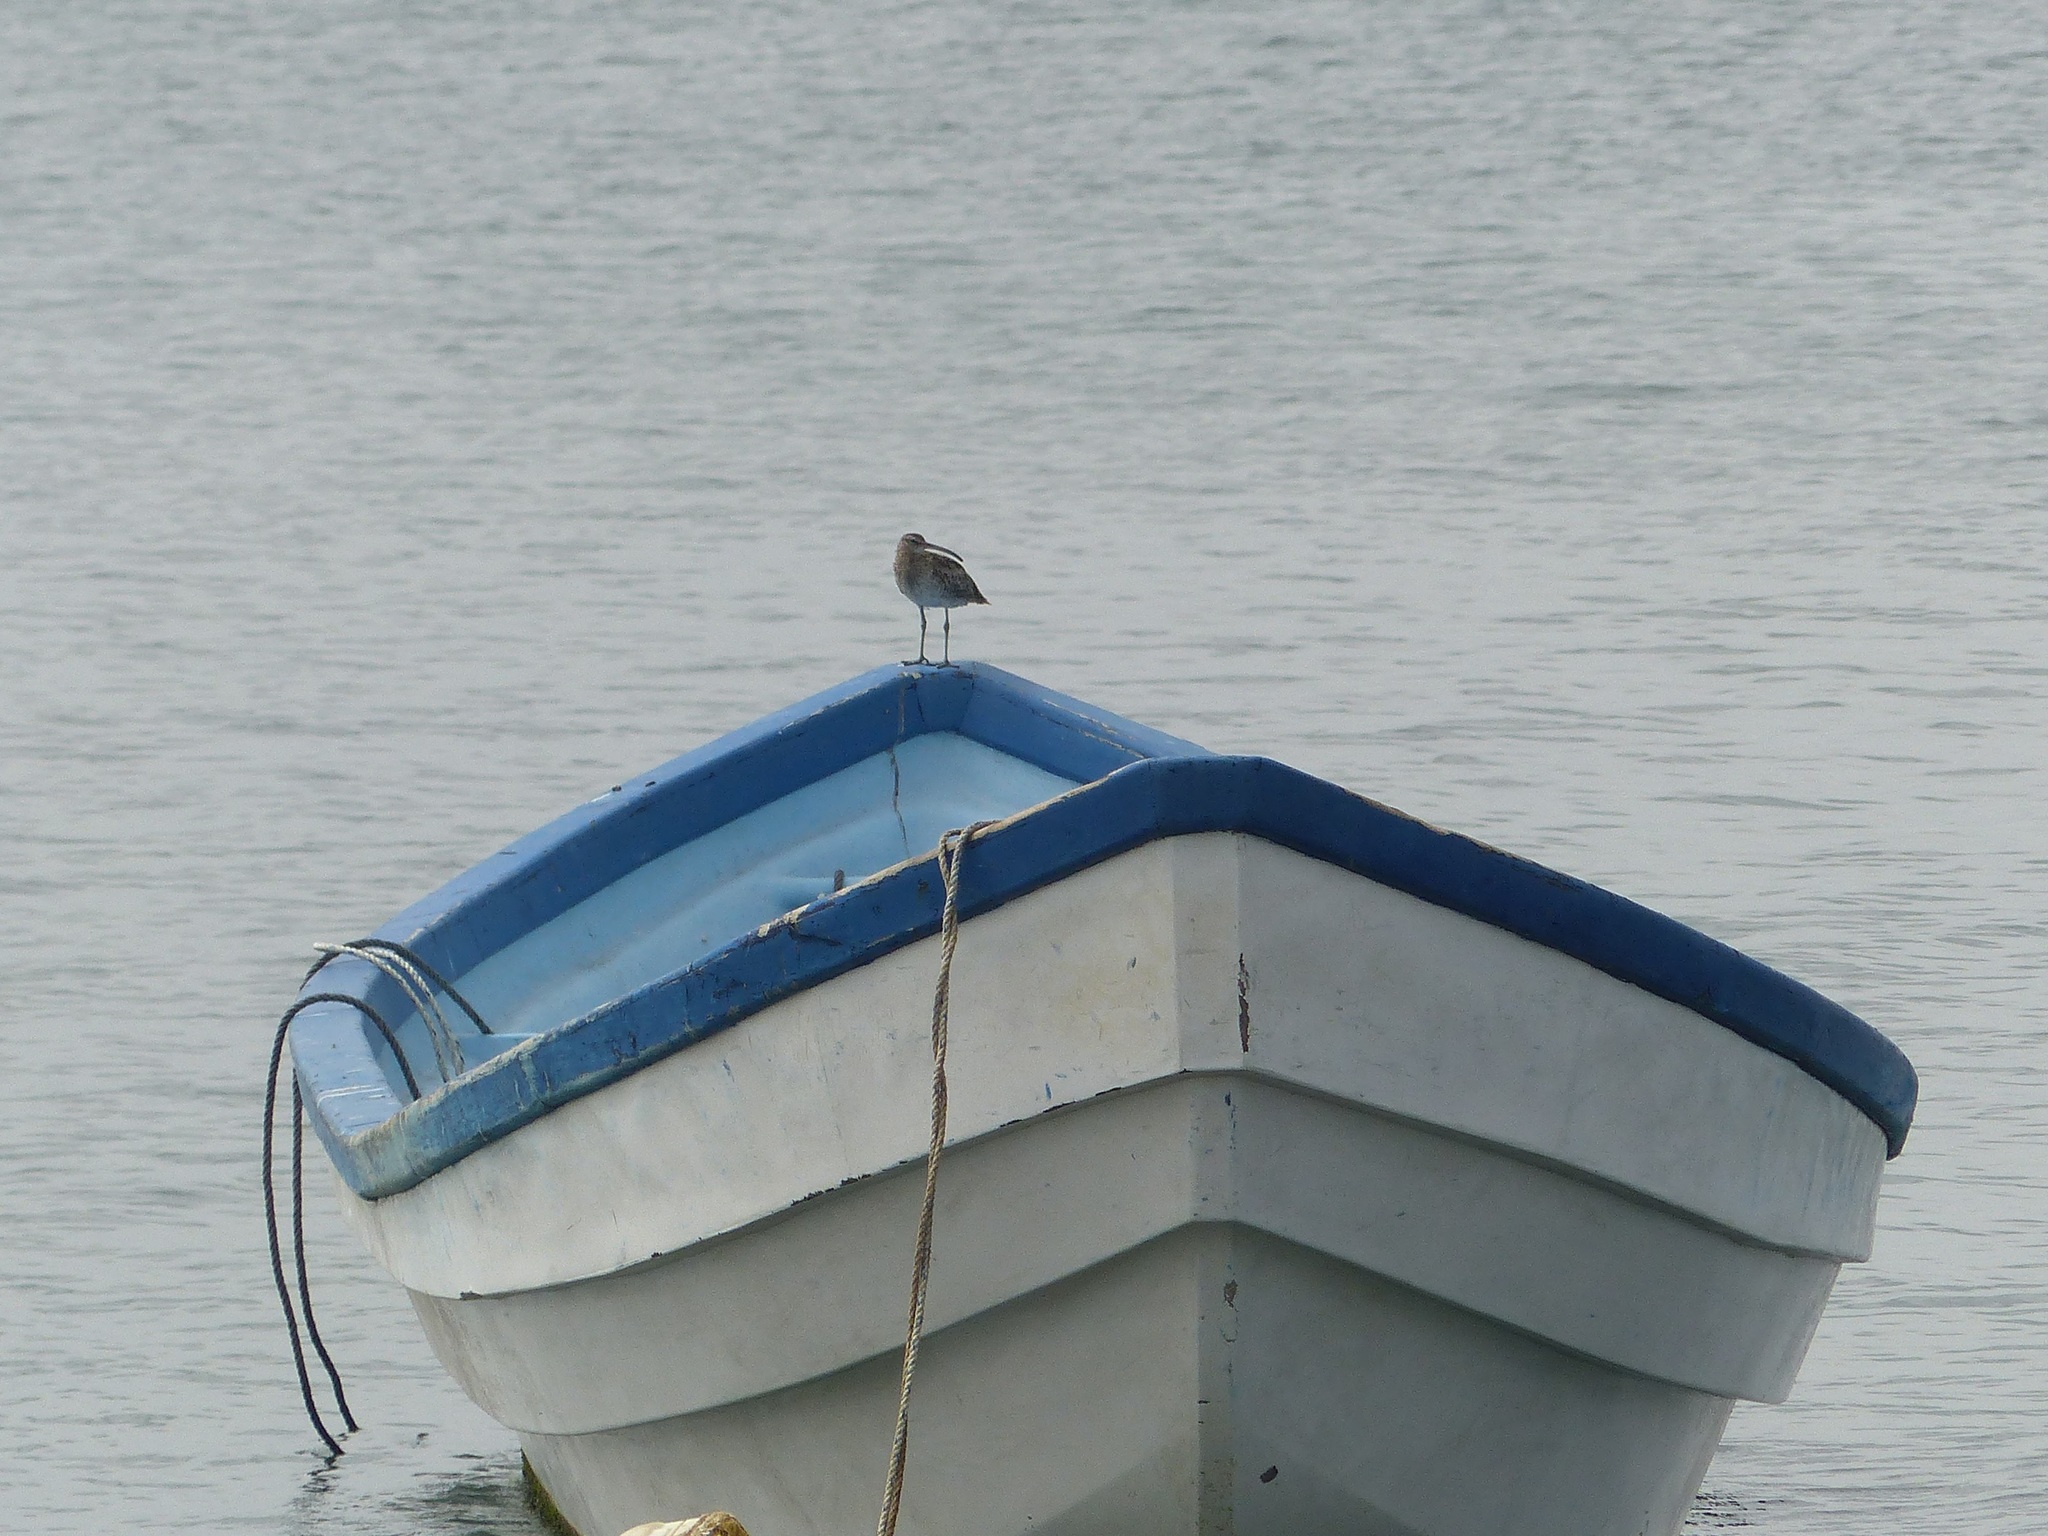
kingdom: Animalia
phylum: Chordata
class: Aves
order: Charadriiformes
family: Scolopacidae
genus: Numenius
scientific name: Numenius phaeopus
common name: Whimbrel
